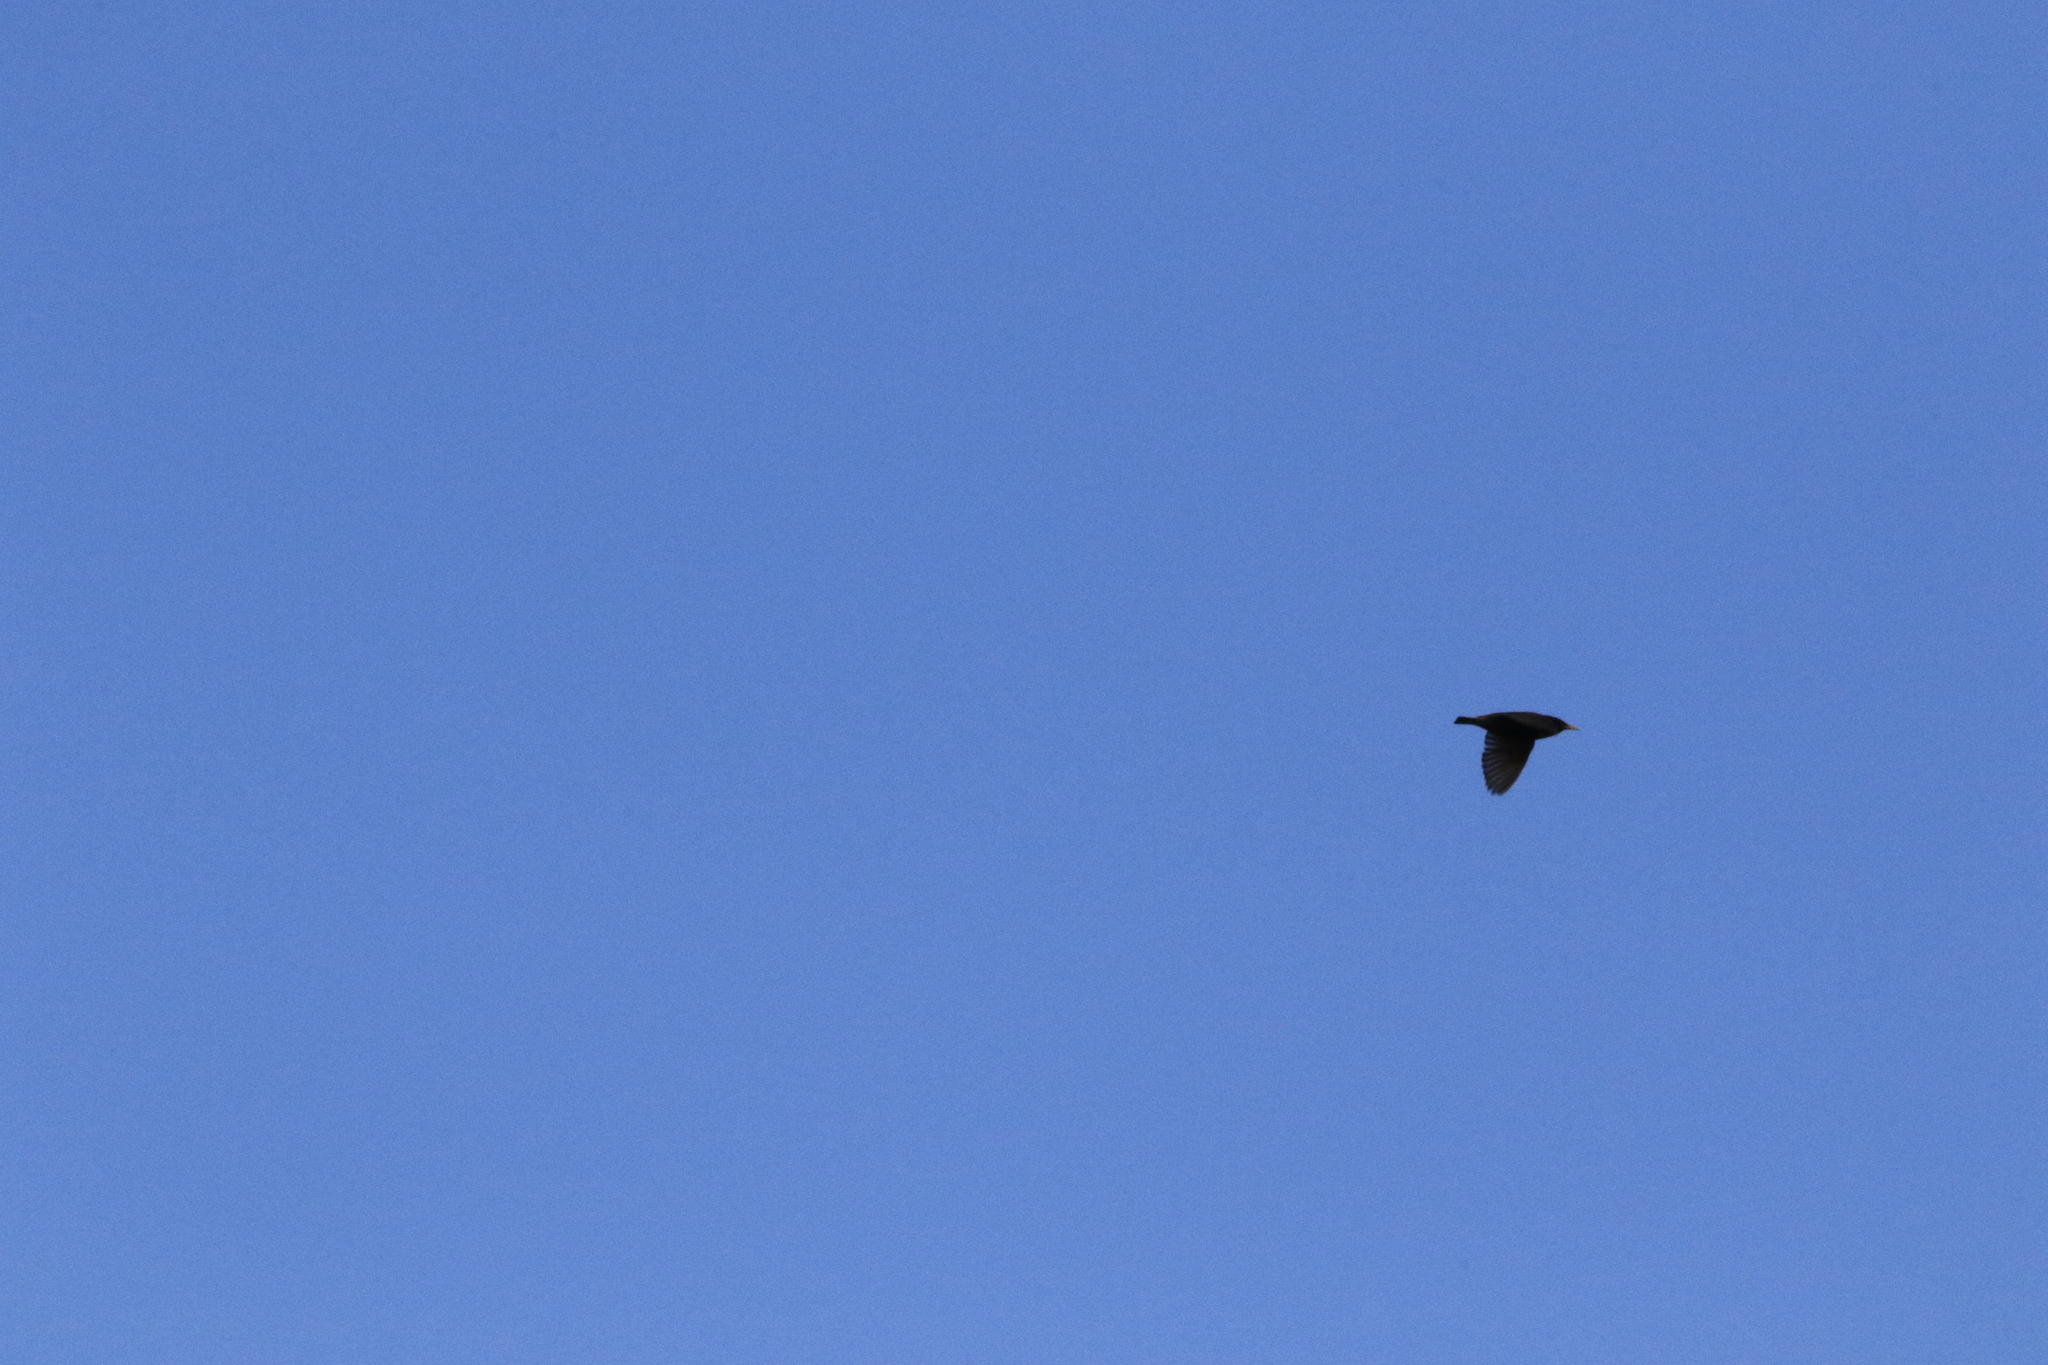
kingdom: Animalia
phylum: Chordata
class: Aves
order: Passeriformes
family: Sturnidae
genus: Sturnus
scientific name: Sturnus vulgaris
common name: Common starling
